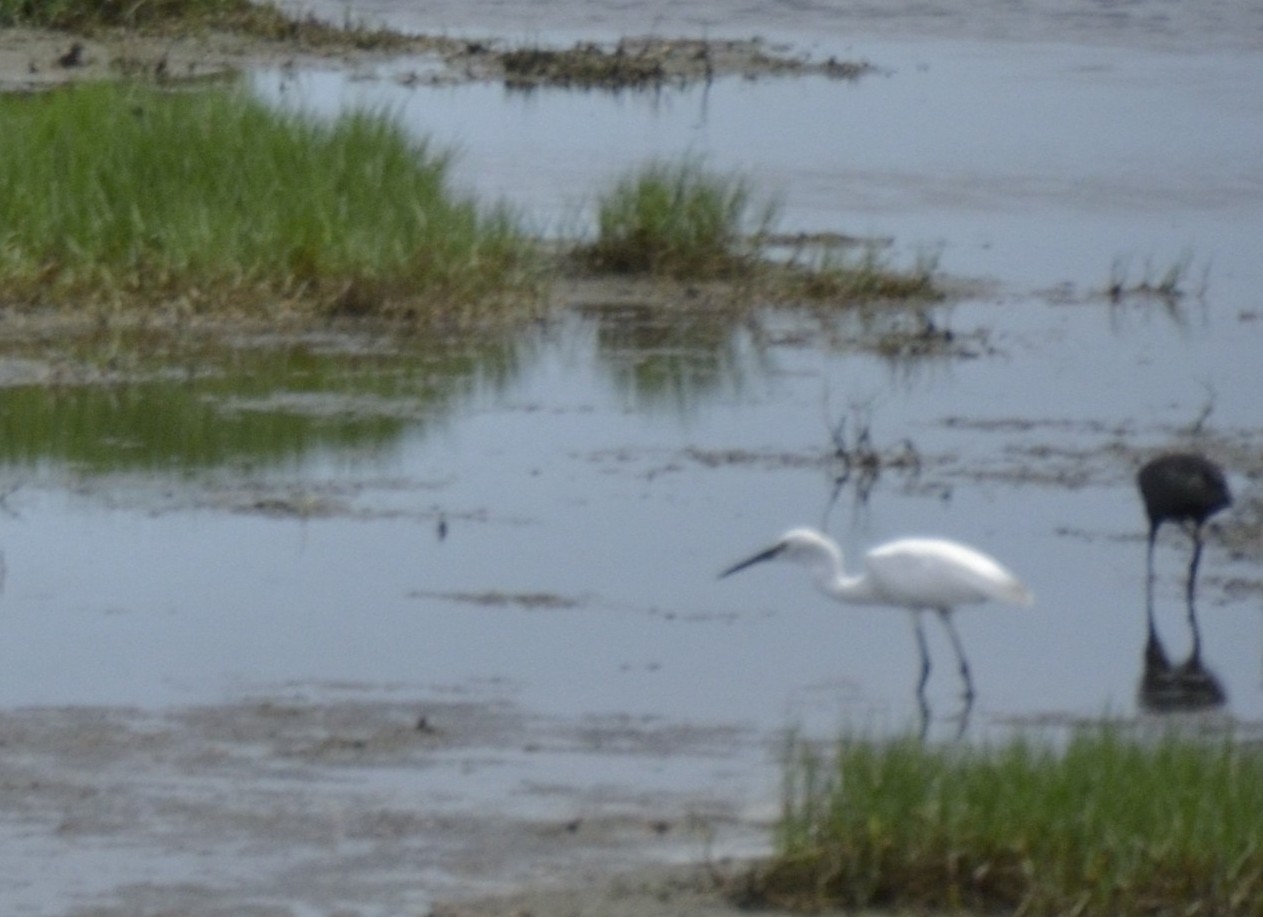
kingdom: Animalia
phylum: Chordata
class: Aves
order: Pelecaniformes
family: Ardeidae
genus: Egretta
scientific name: Egretta garzetta
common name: Little egret
